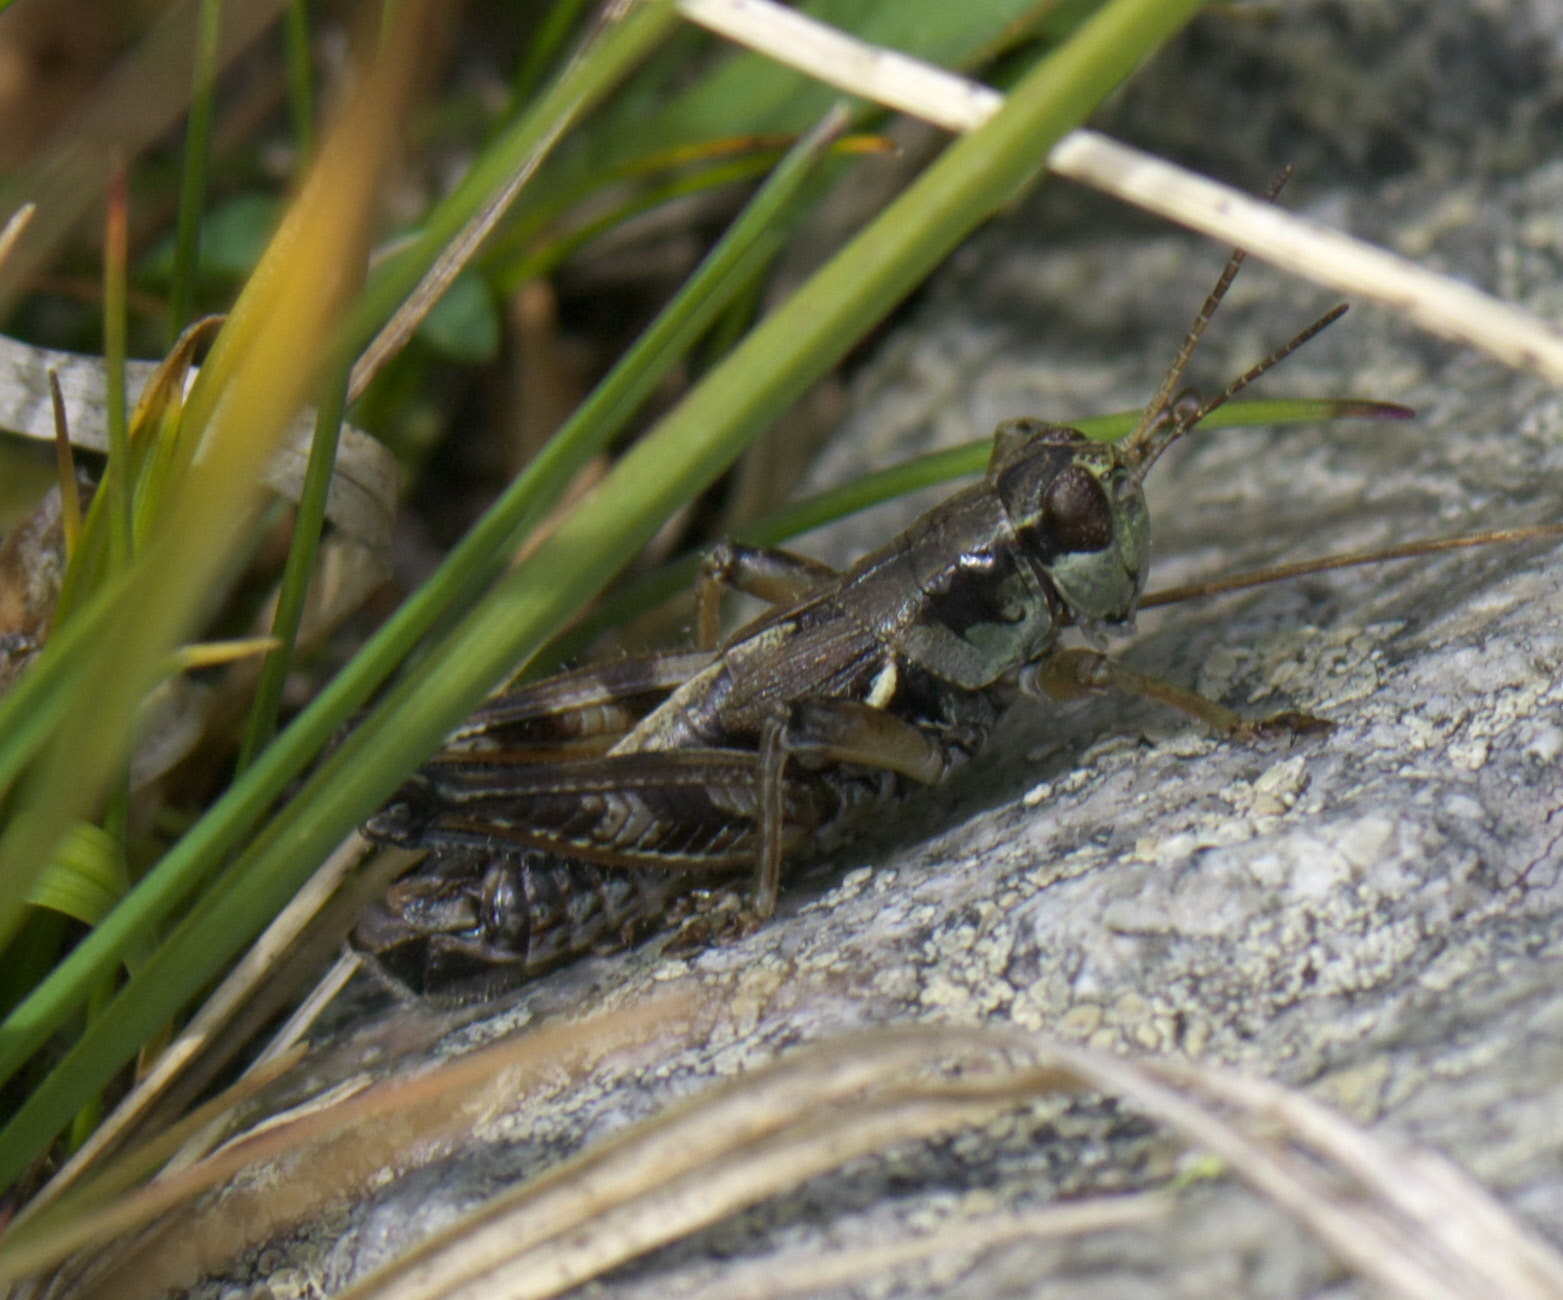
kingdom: Animalia
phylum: Arthropoda
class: Insecta
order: Orthoptera
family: Acrididae
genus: Melanoplus
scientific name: Melanoplus oregonensis
